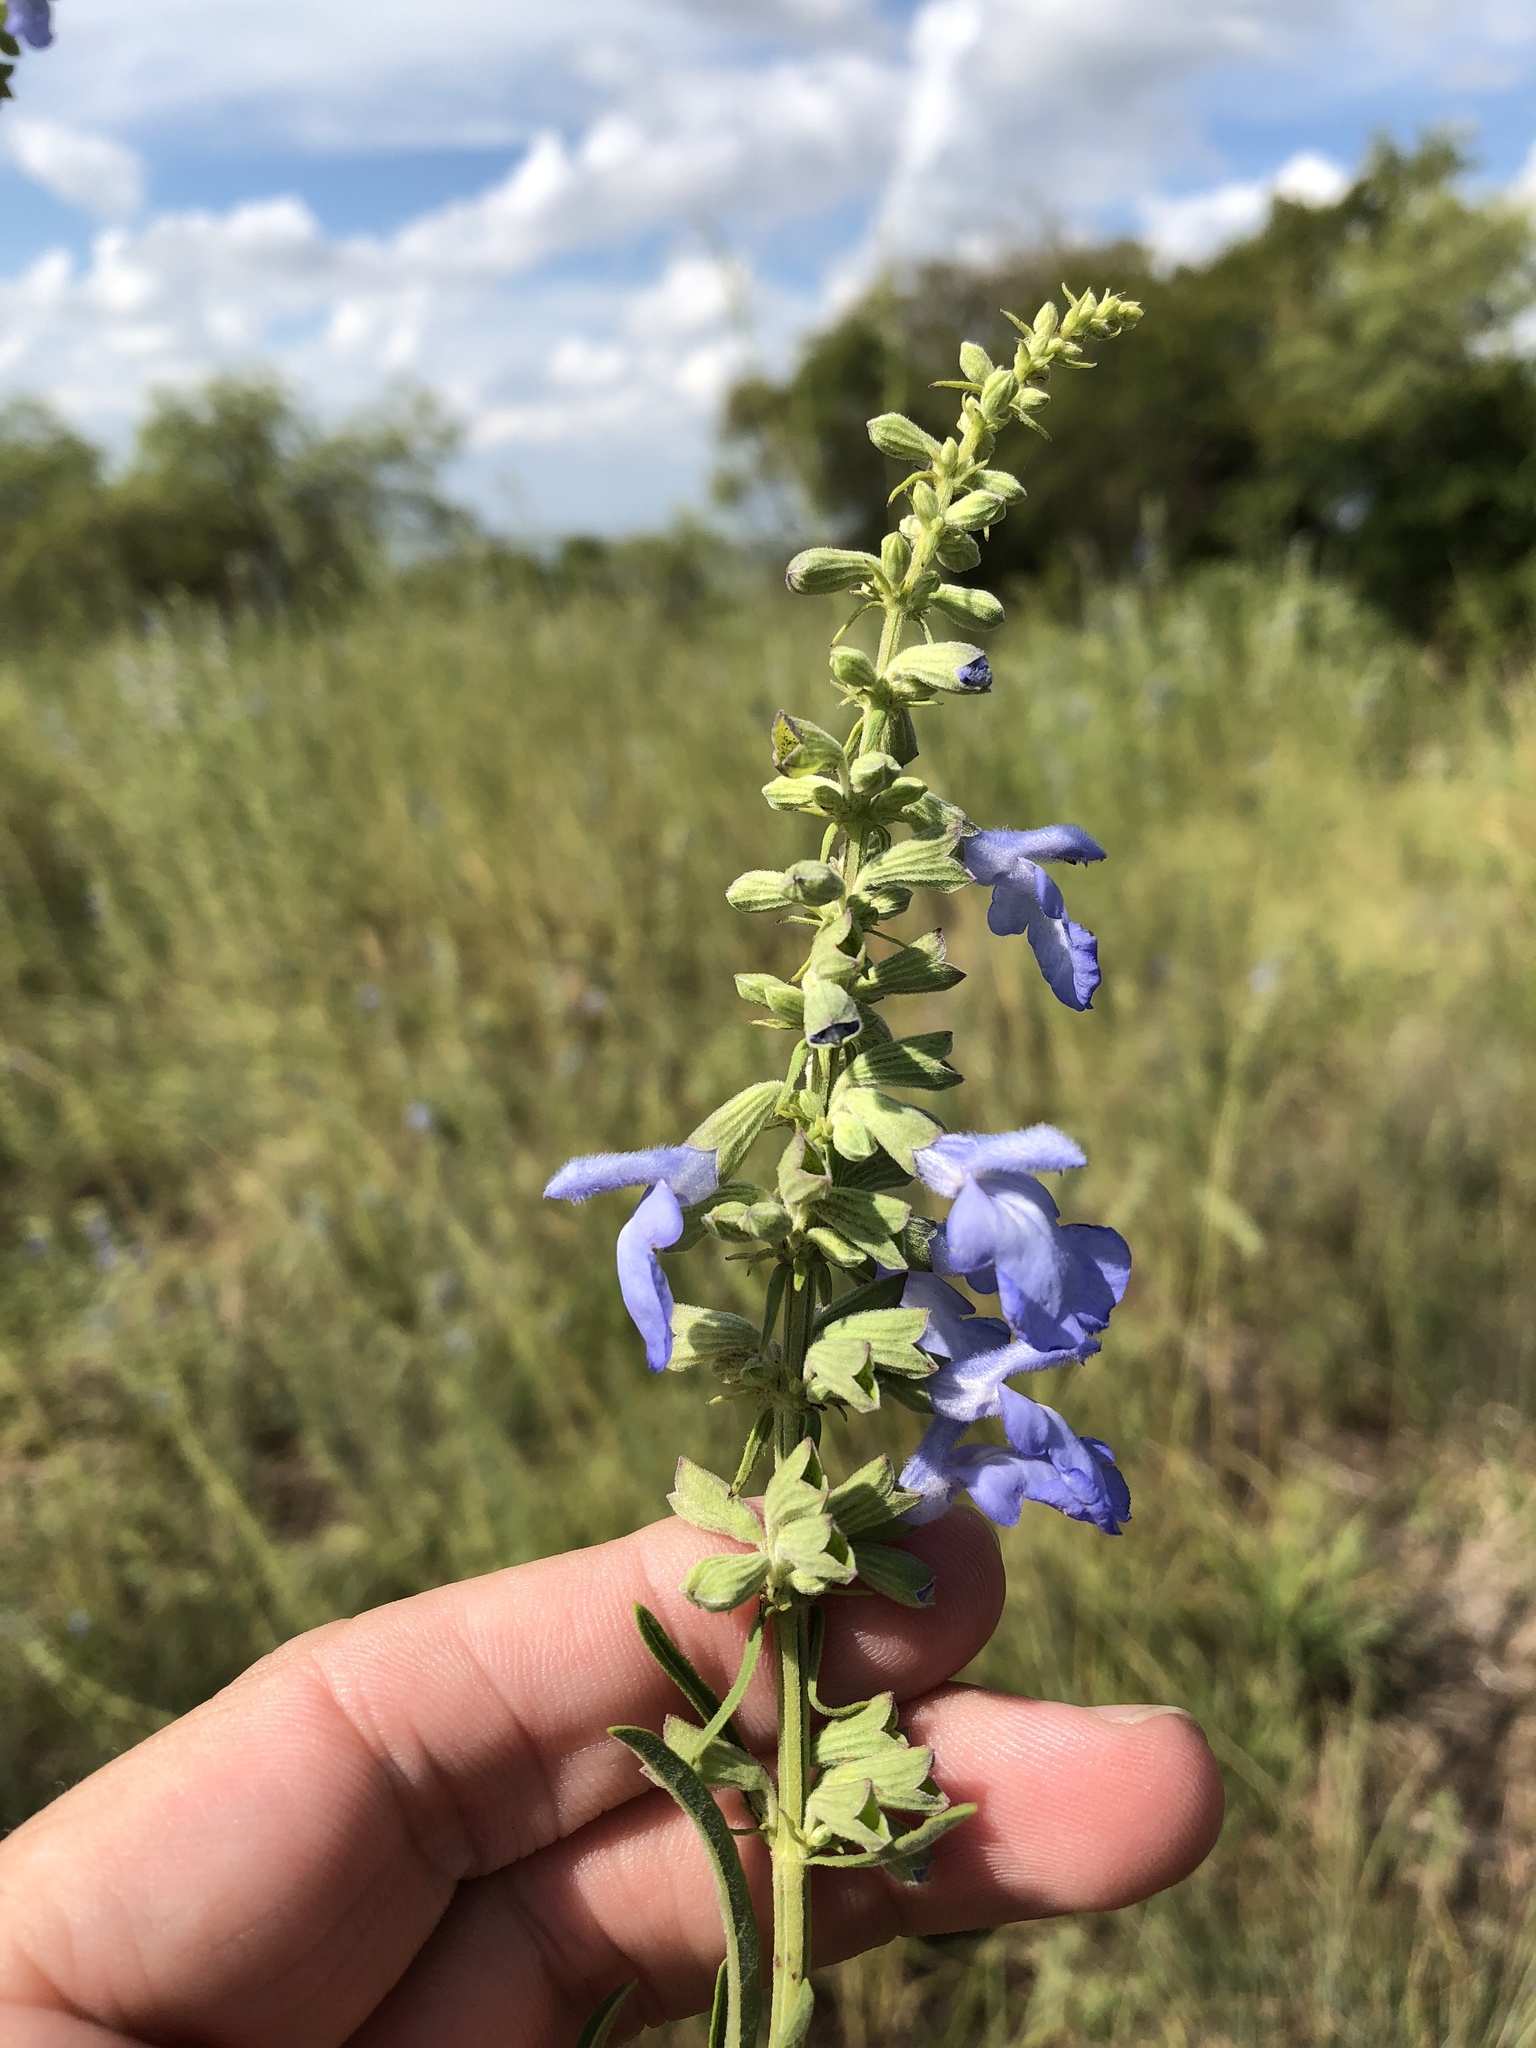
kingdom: Plantae
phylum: Tracheophyta
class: Magnoliopsida
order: Lamiales
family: Lamiaceae
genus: Salvia
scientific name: Salvia azurea
